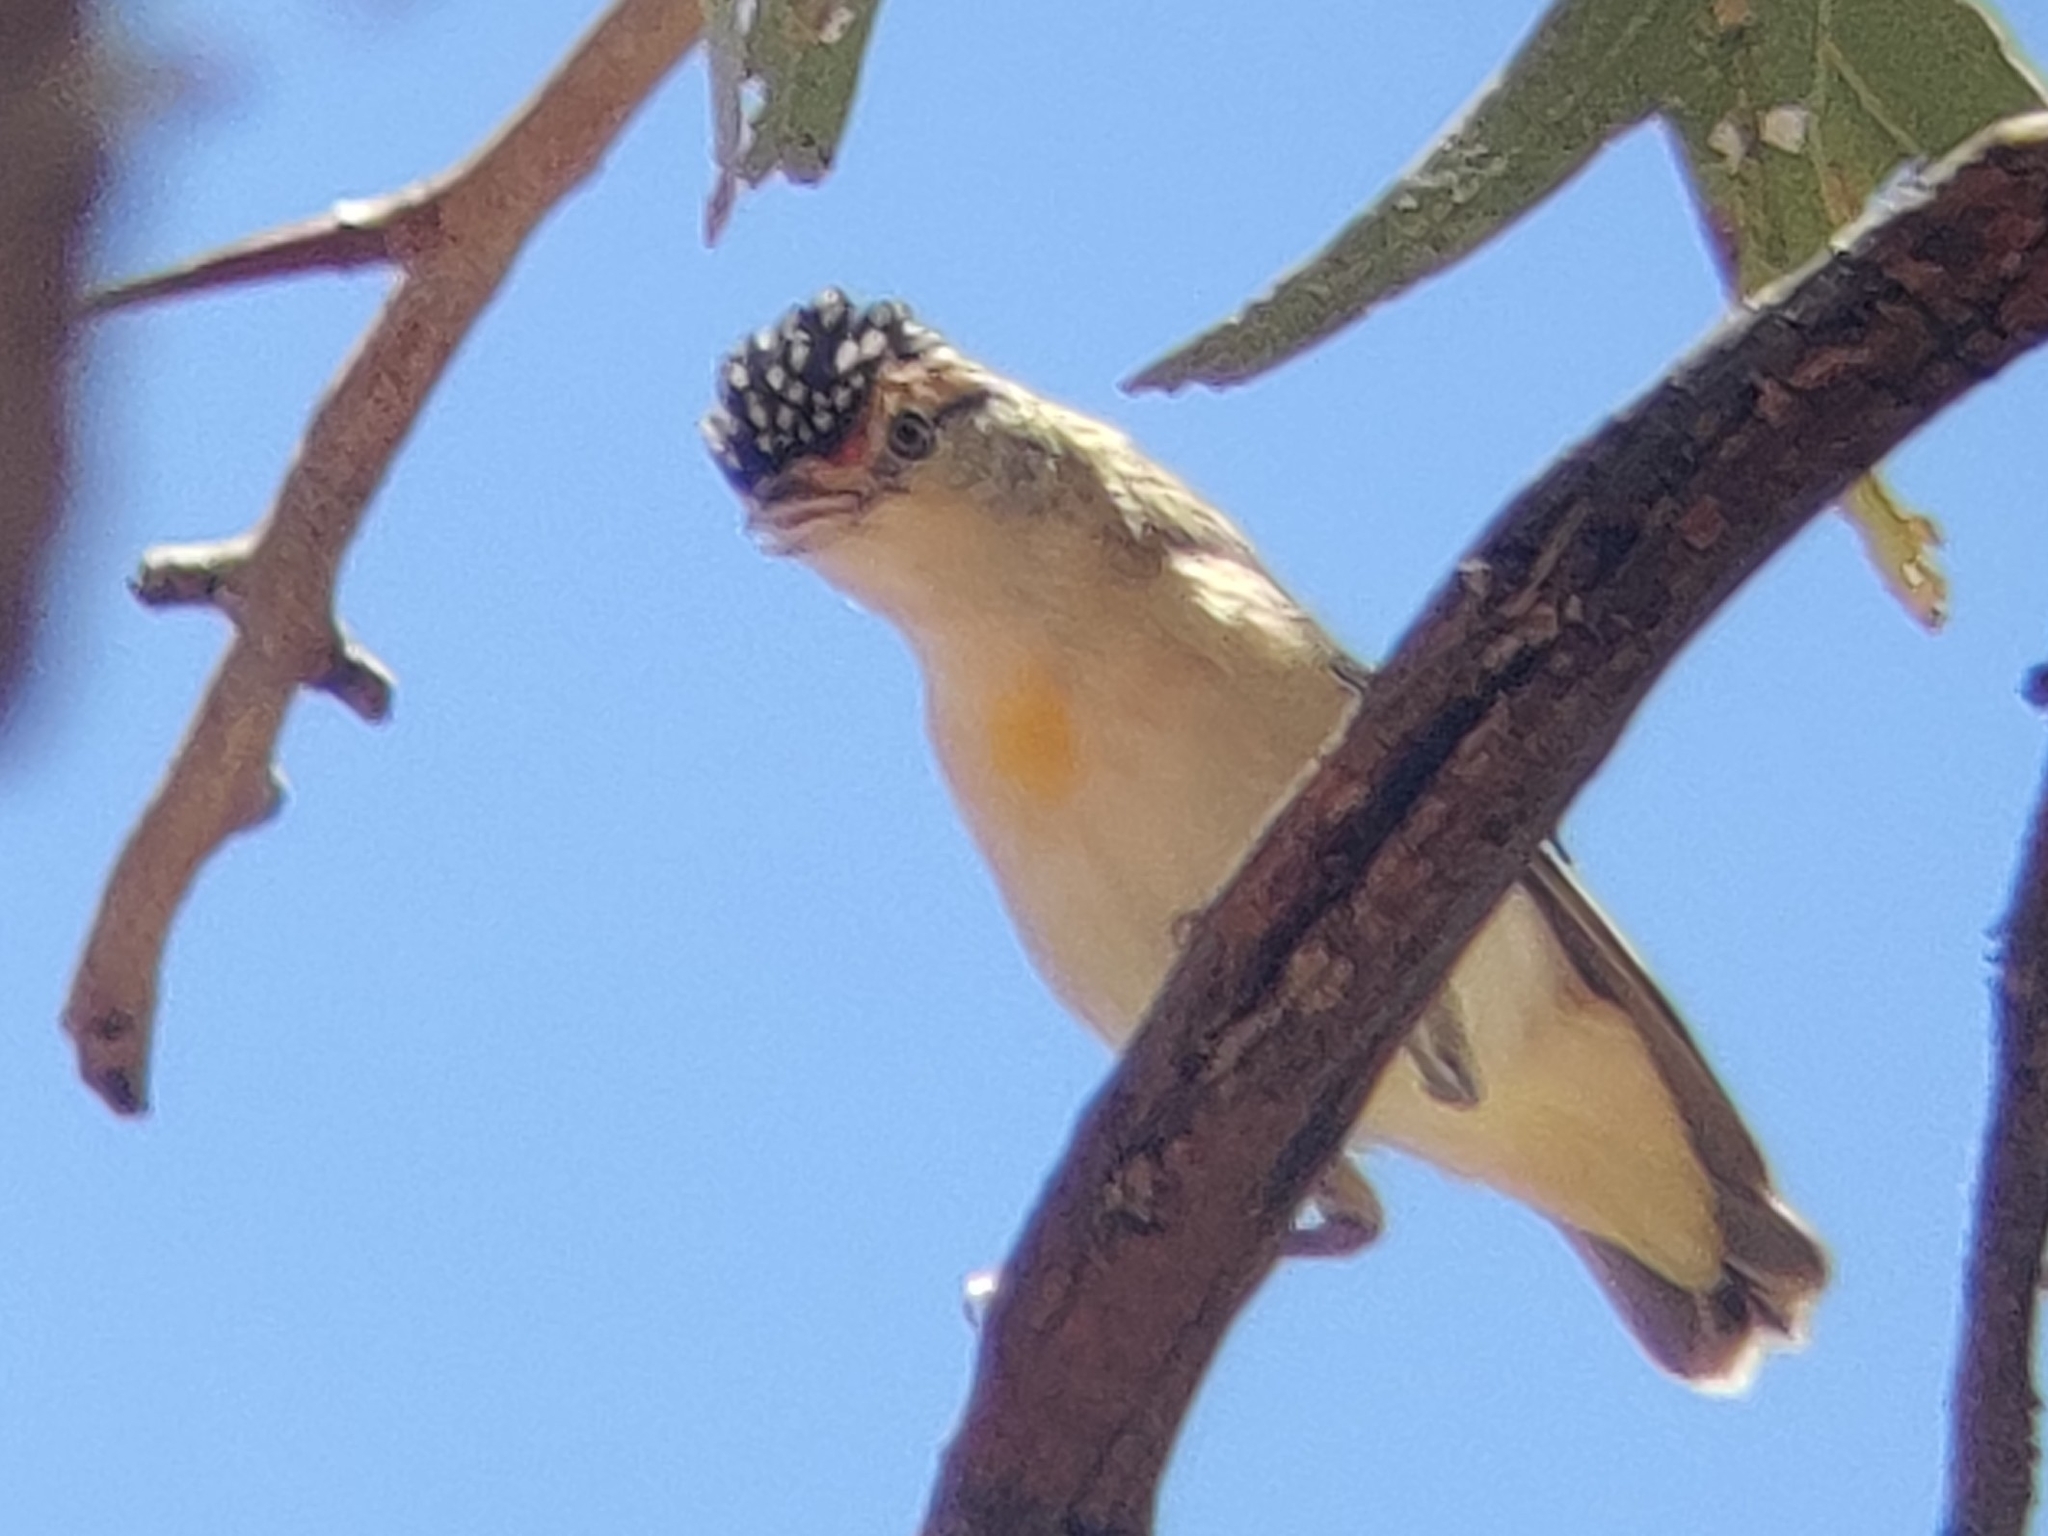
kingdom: Animalia
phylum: Chordata
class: Aves
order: Passeriformes
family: Pardalotidae
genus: Pardalotus
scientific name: Pardalotus rubricatus
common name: Red-browed pardalote
